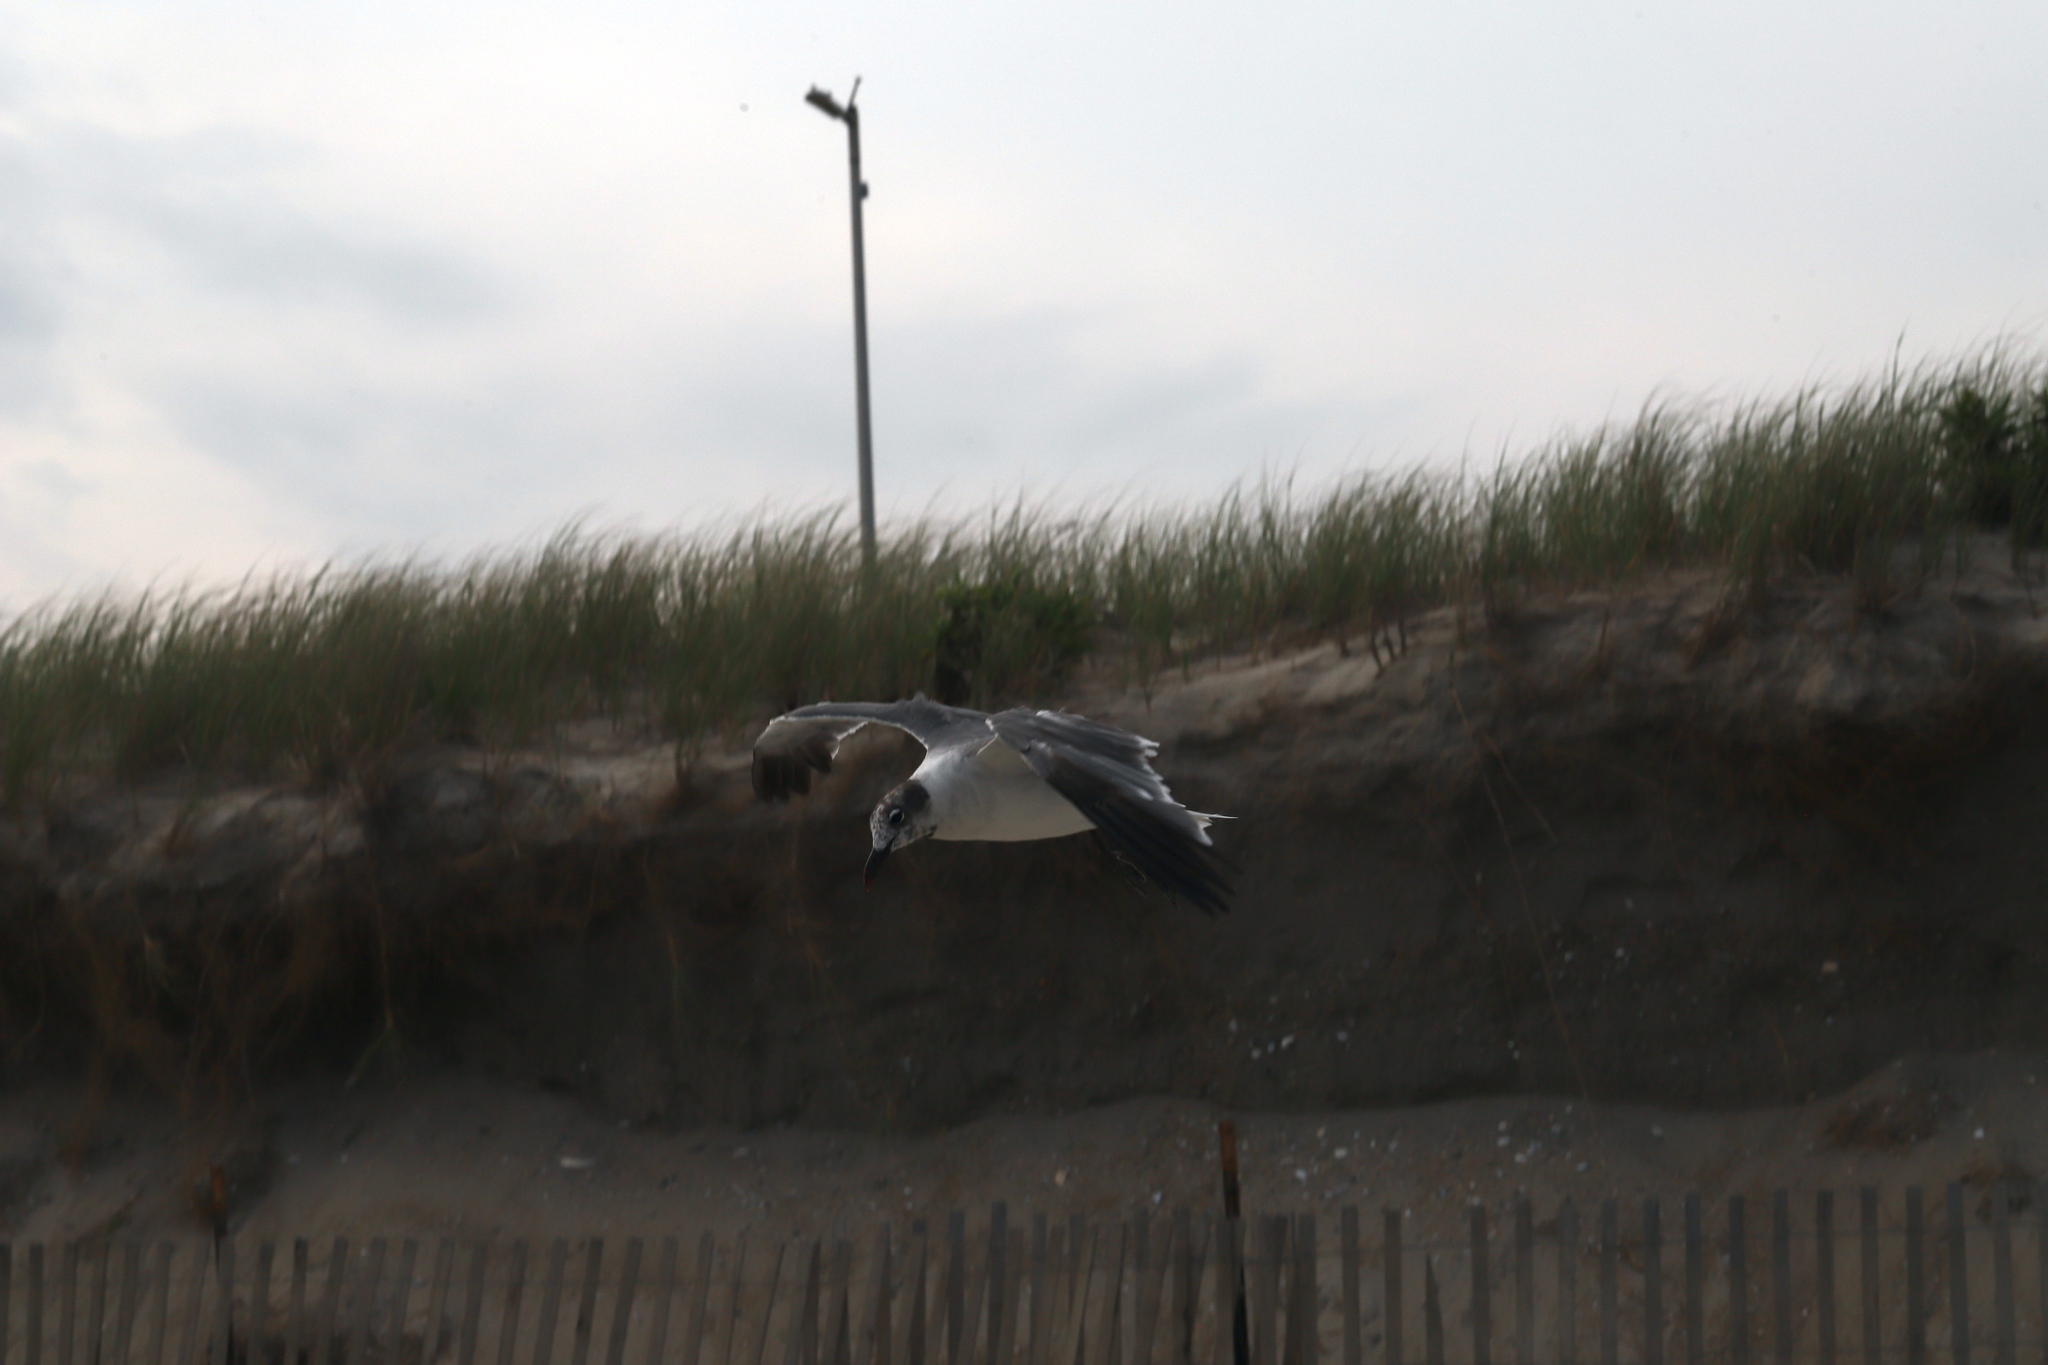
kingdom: Animalia
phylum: Chordata
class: Aves
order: Charadriiformes
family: Laridae
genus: Leucophaeus
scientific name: Leucophaeus atricilla
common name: Laughing gull
